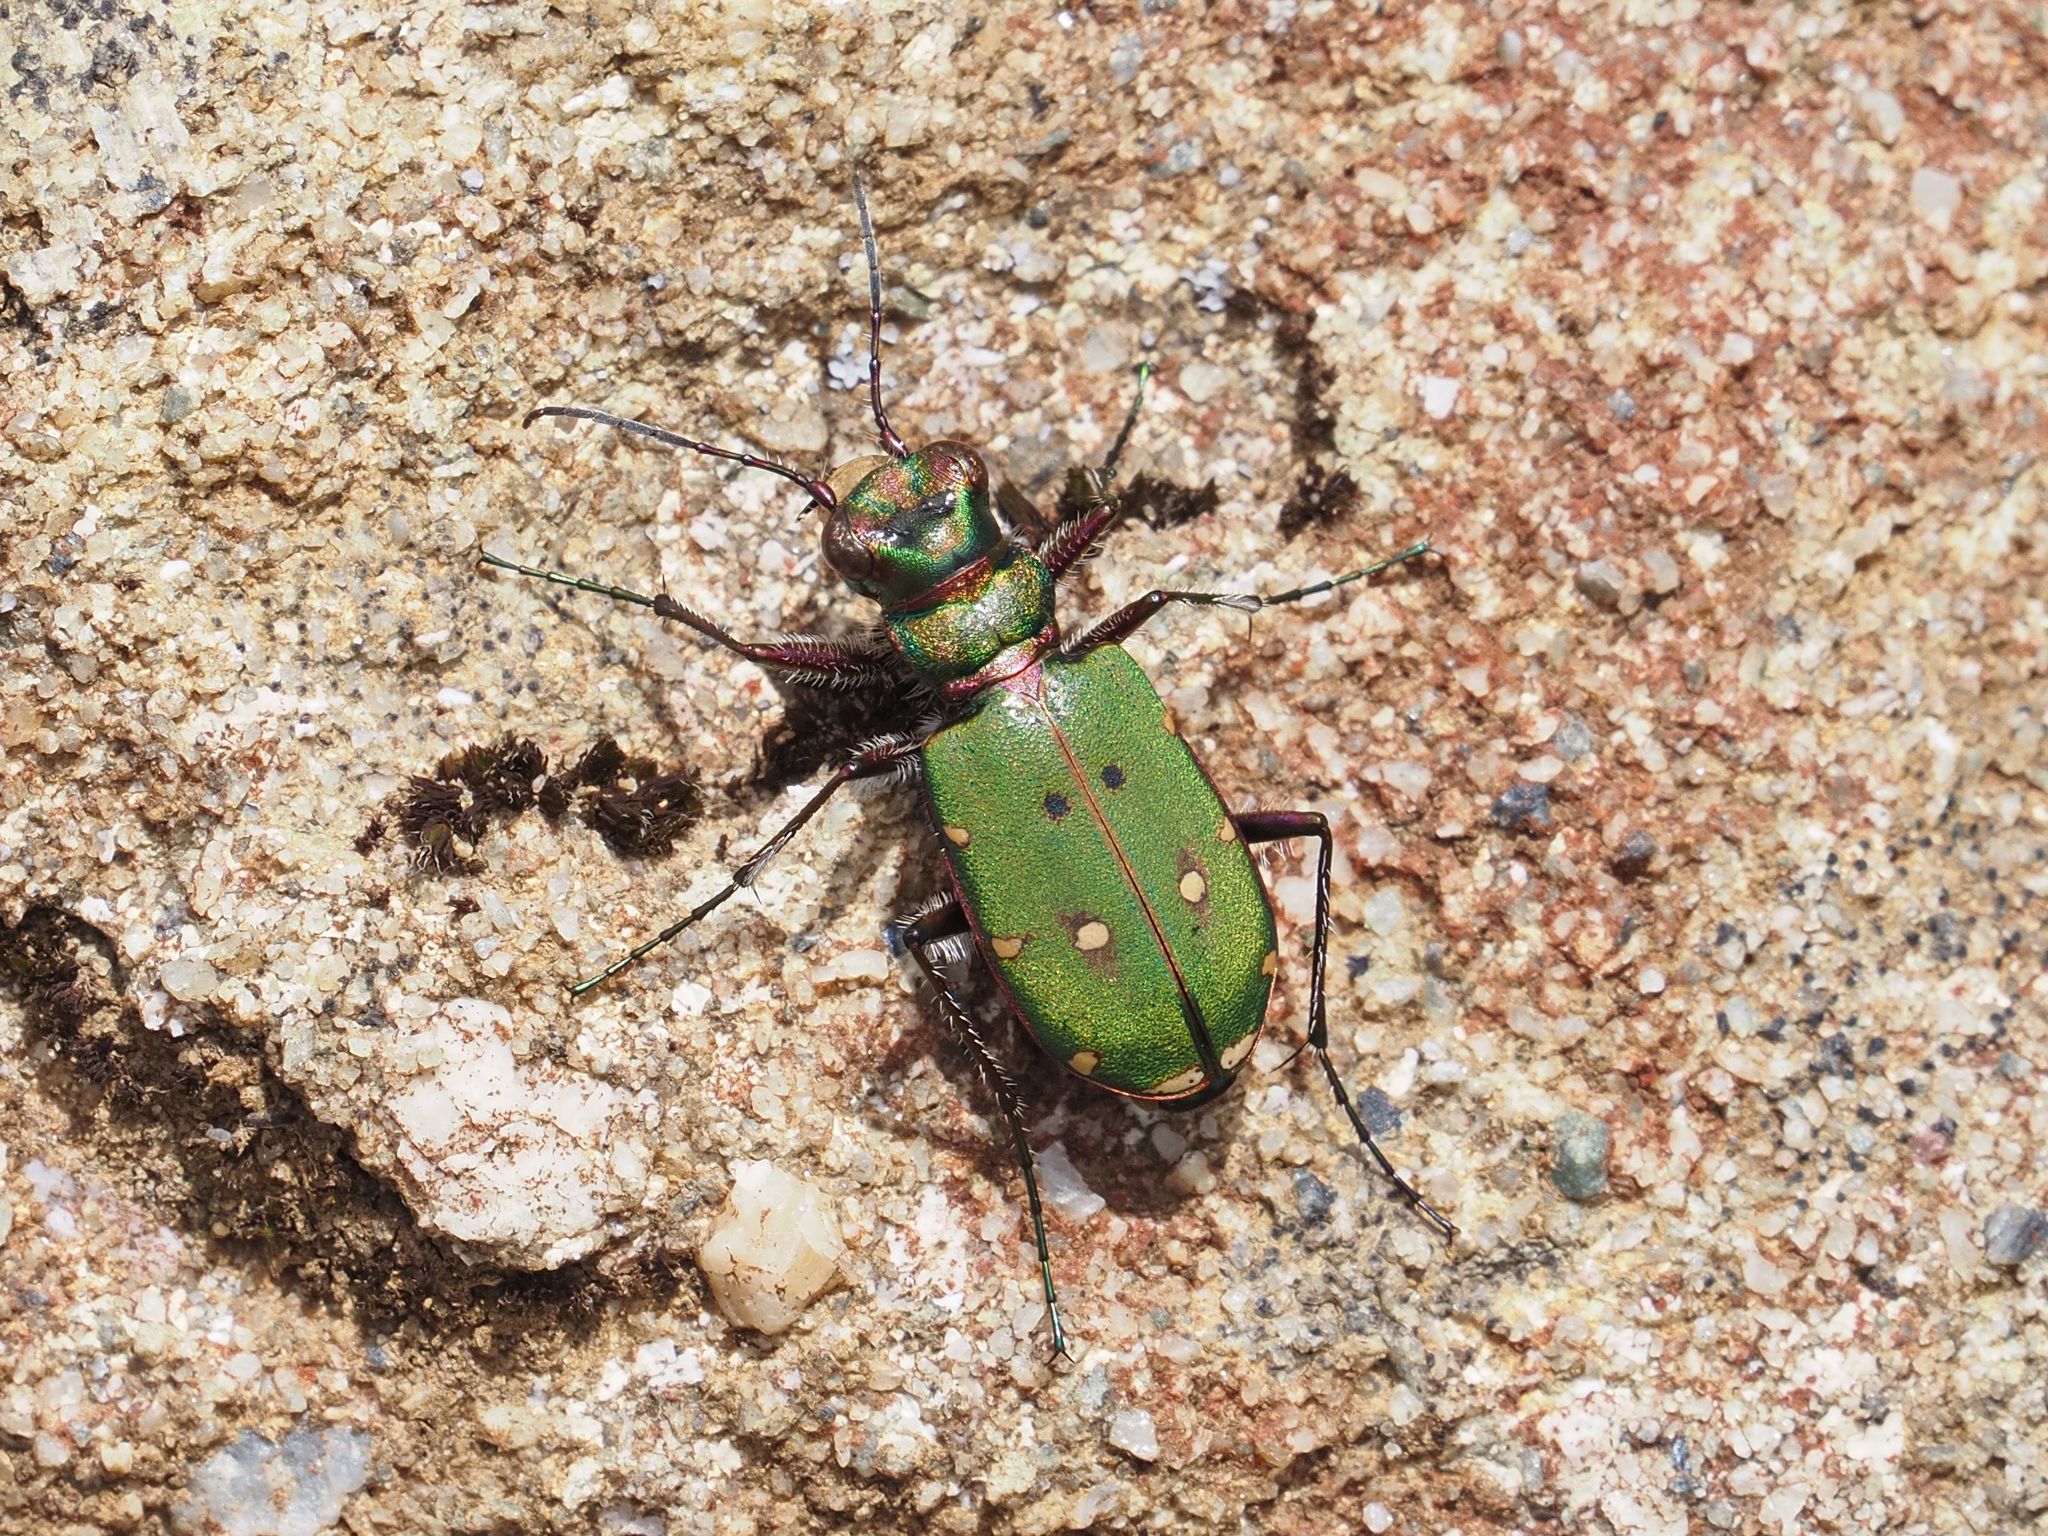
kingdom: Animalia
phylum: Arthropoda
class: Insecta
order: Coleoptera
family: Carabidae
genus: Cicindela
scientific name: Cicindela campestris
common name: Common tiger beetle
